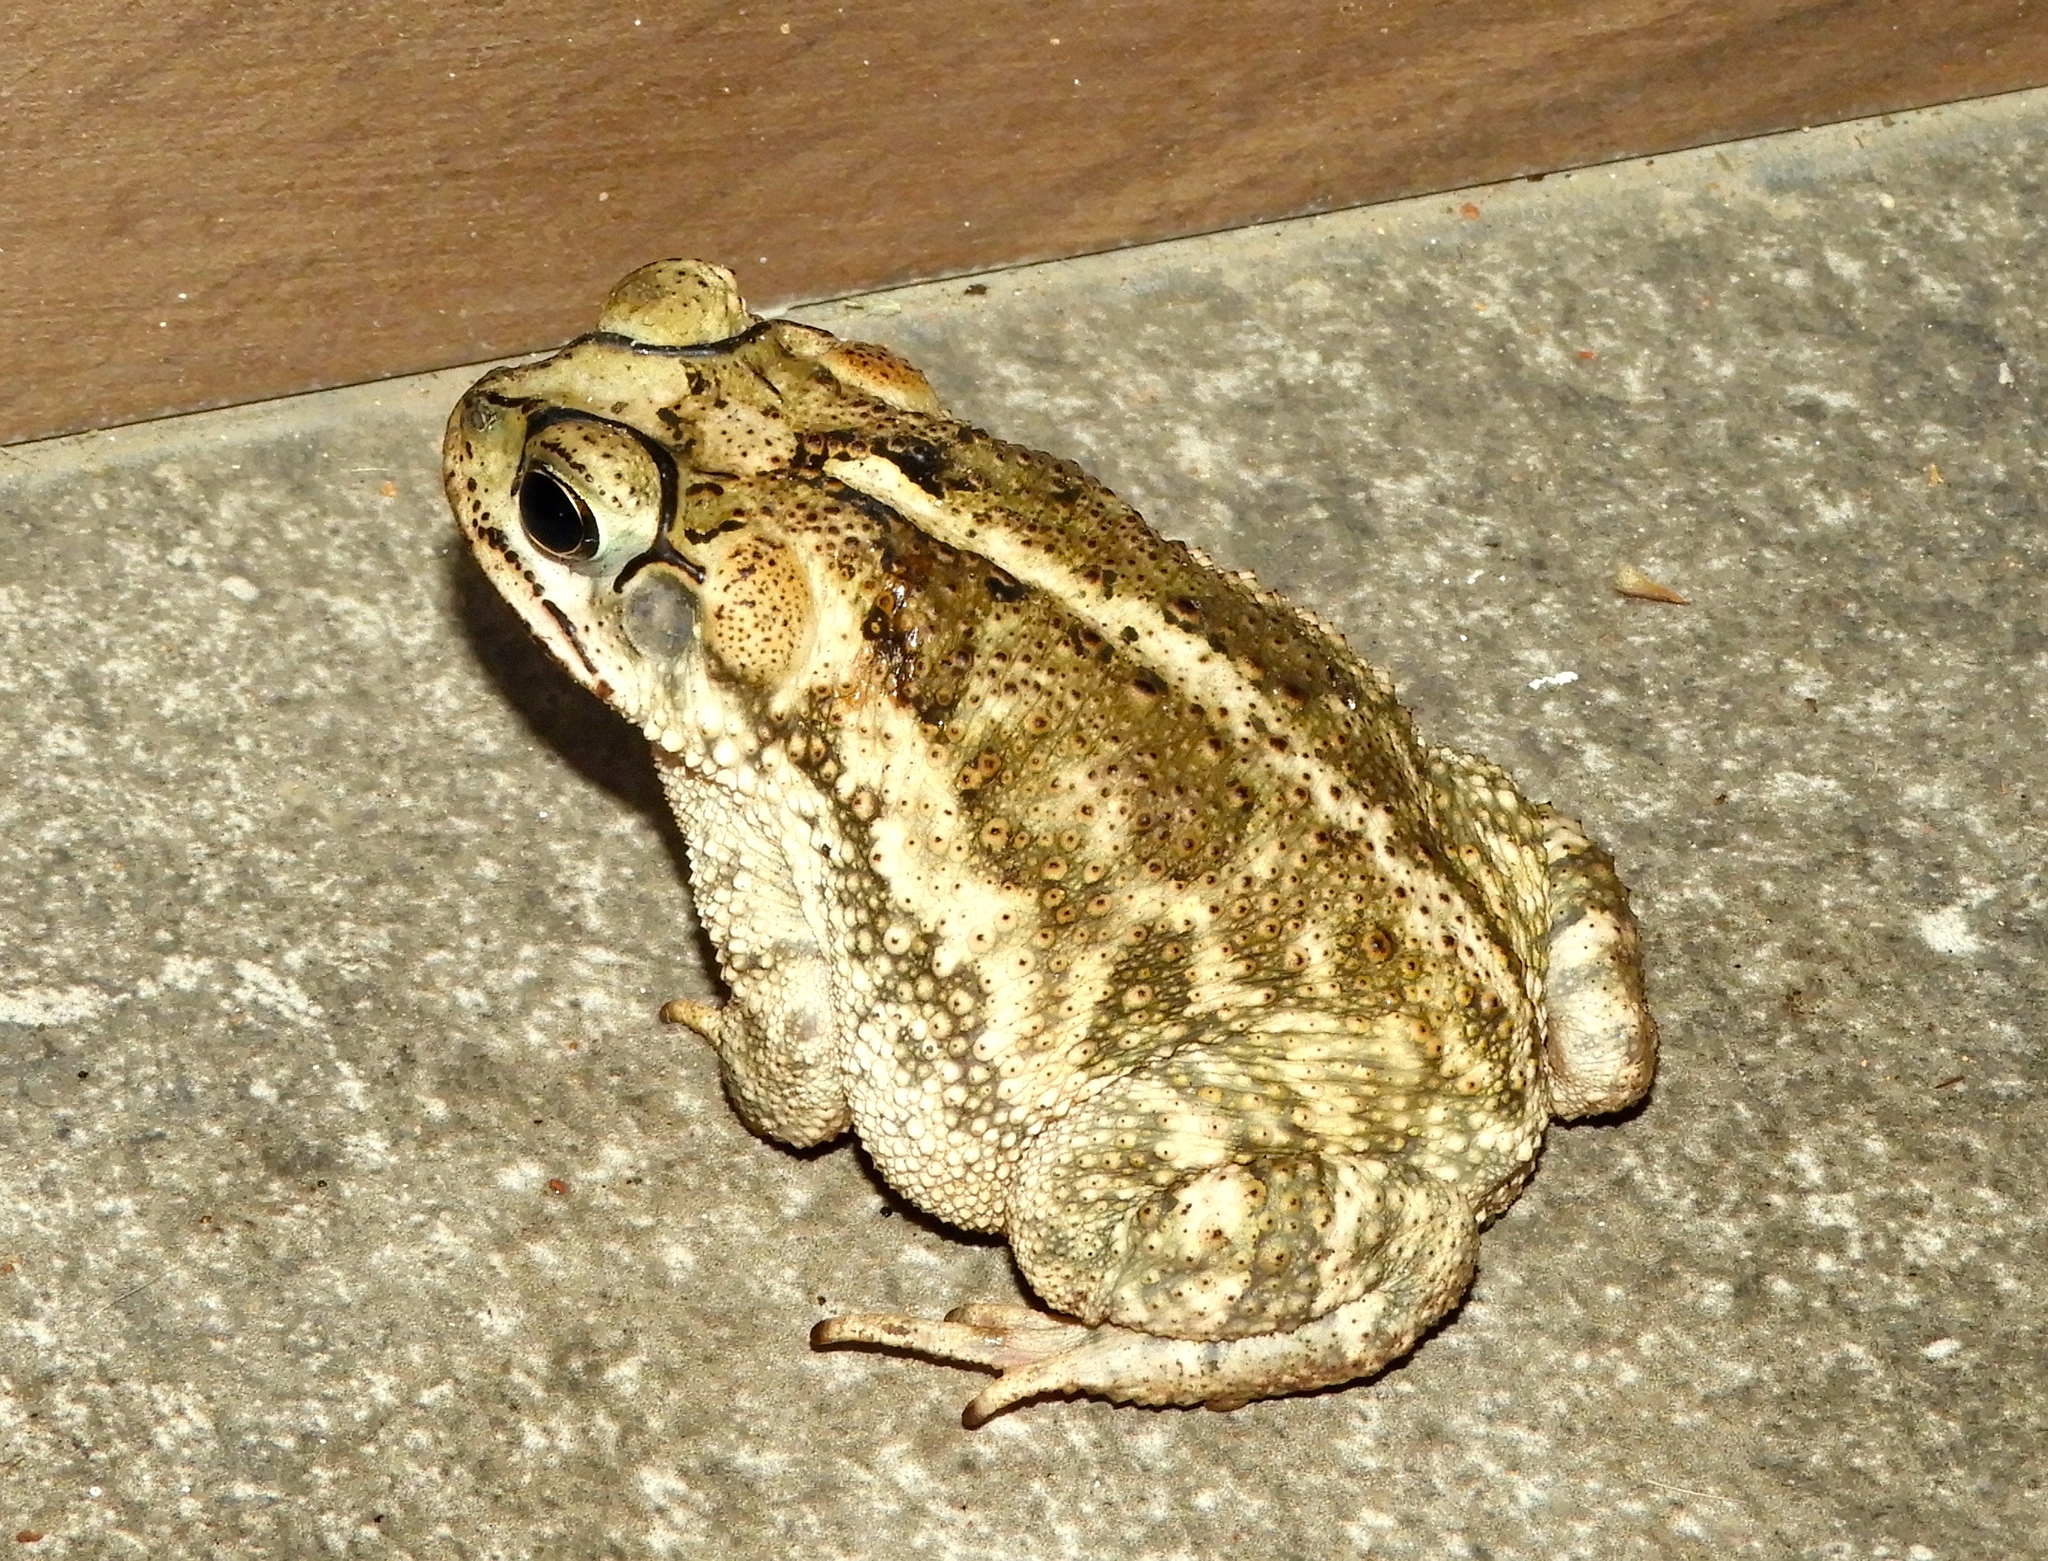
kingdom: Animalia
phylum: Chordata
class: Amphibia
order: Anura
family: Bufonidae
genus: Incilius
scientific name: Incilius mazatlanensis
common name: Sinaloa toad
